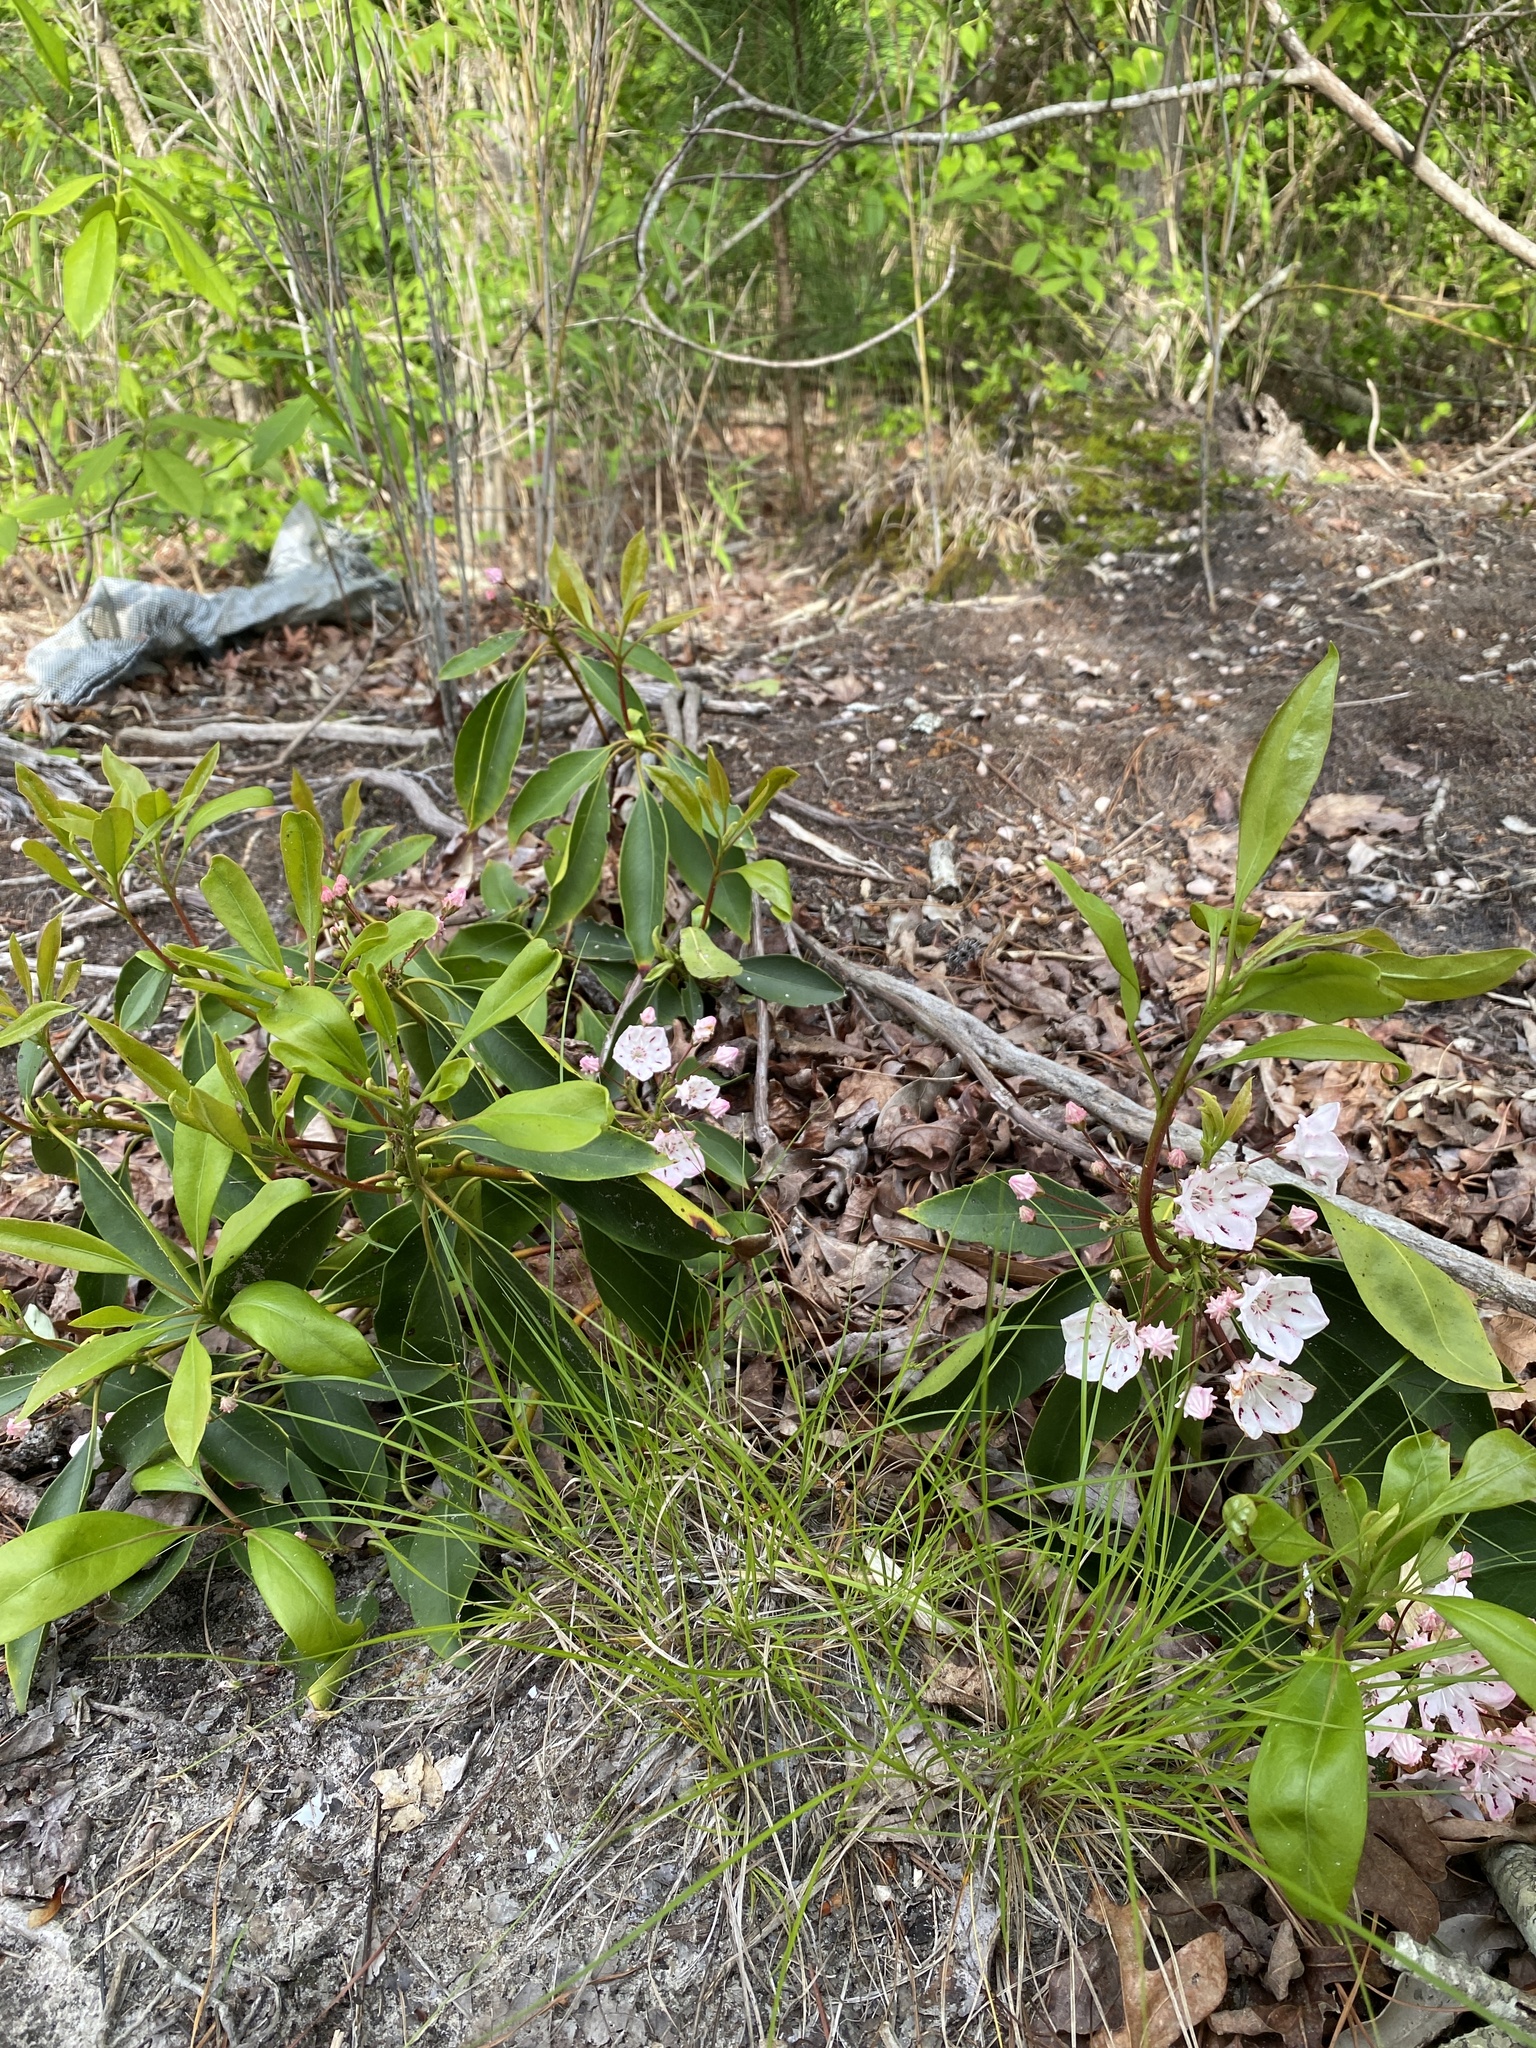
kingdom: Plantae
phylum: Tracheophyta
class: Magnoliopsida
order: Ericales
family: Ericaceae
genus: Kalmia
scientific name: Kalmia latifolia
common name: Mountain-laurel
